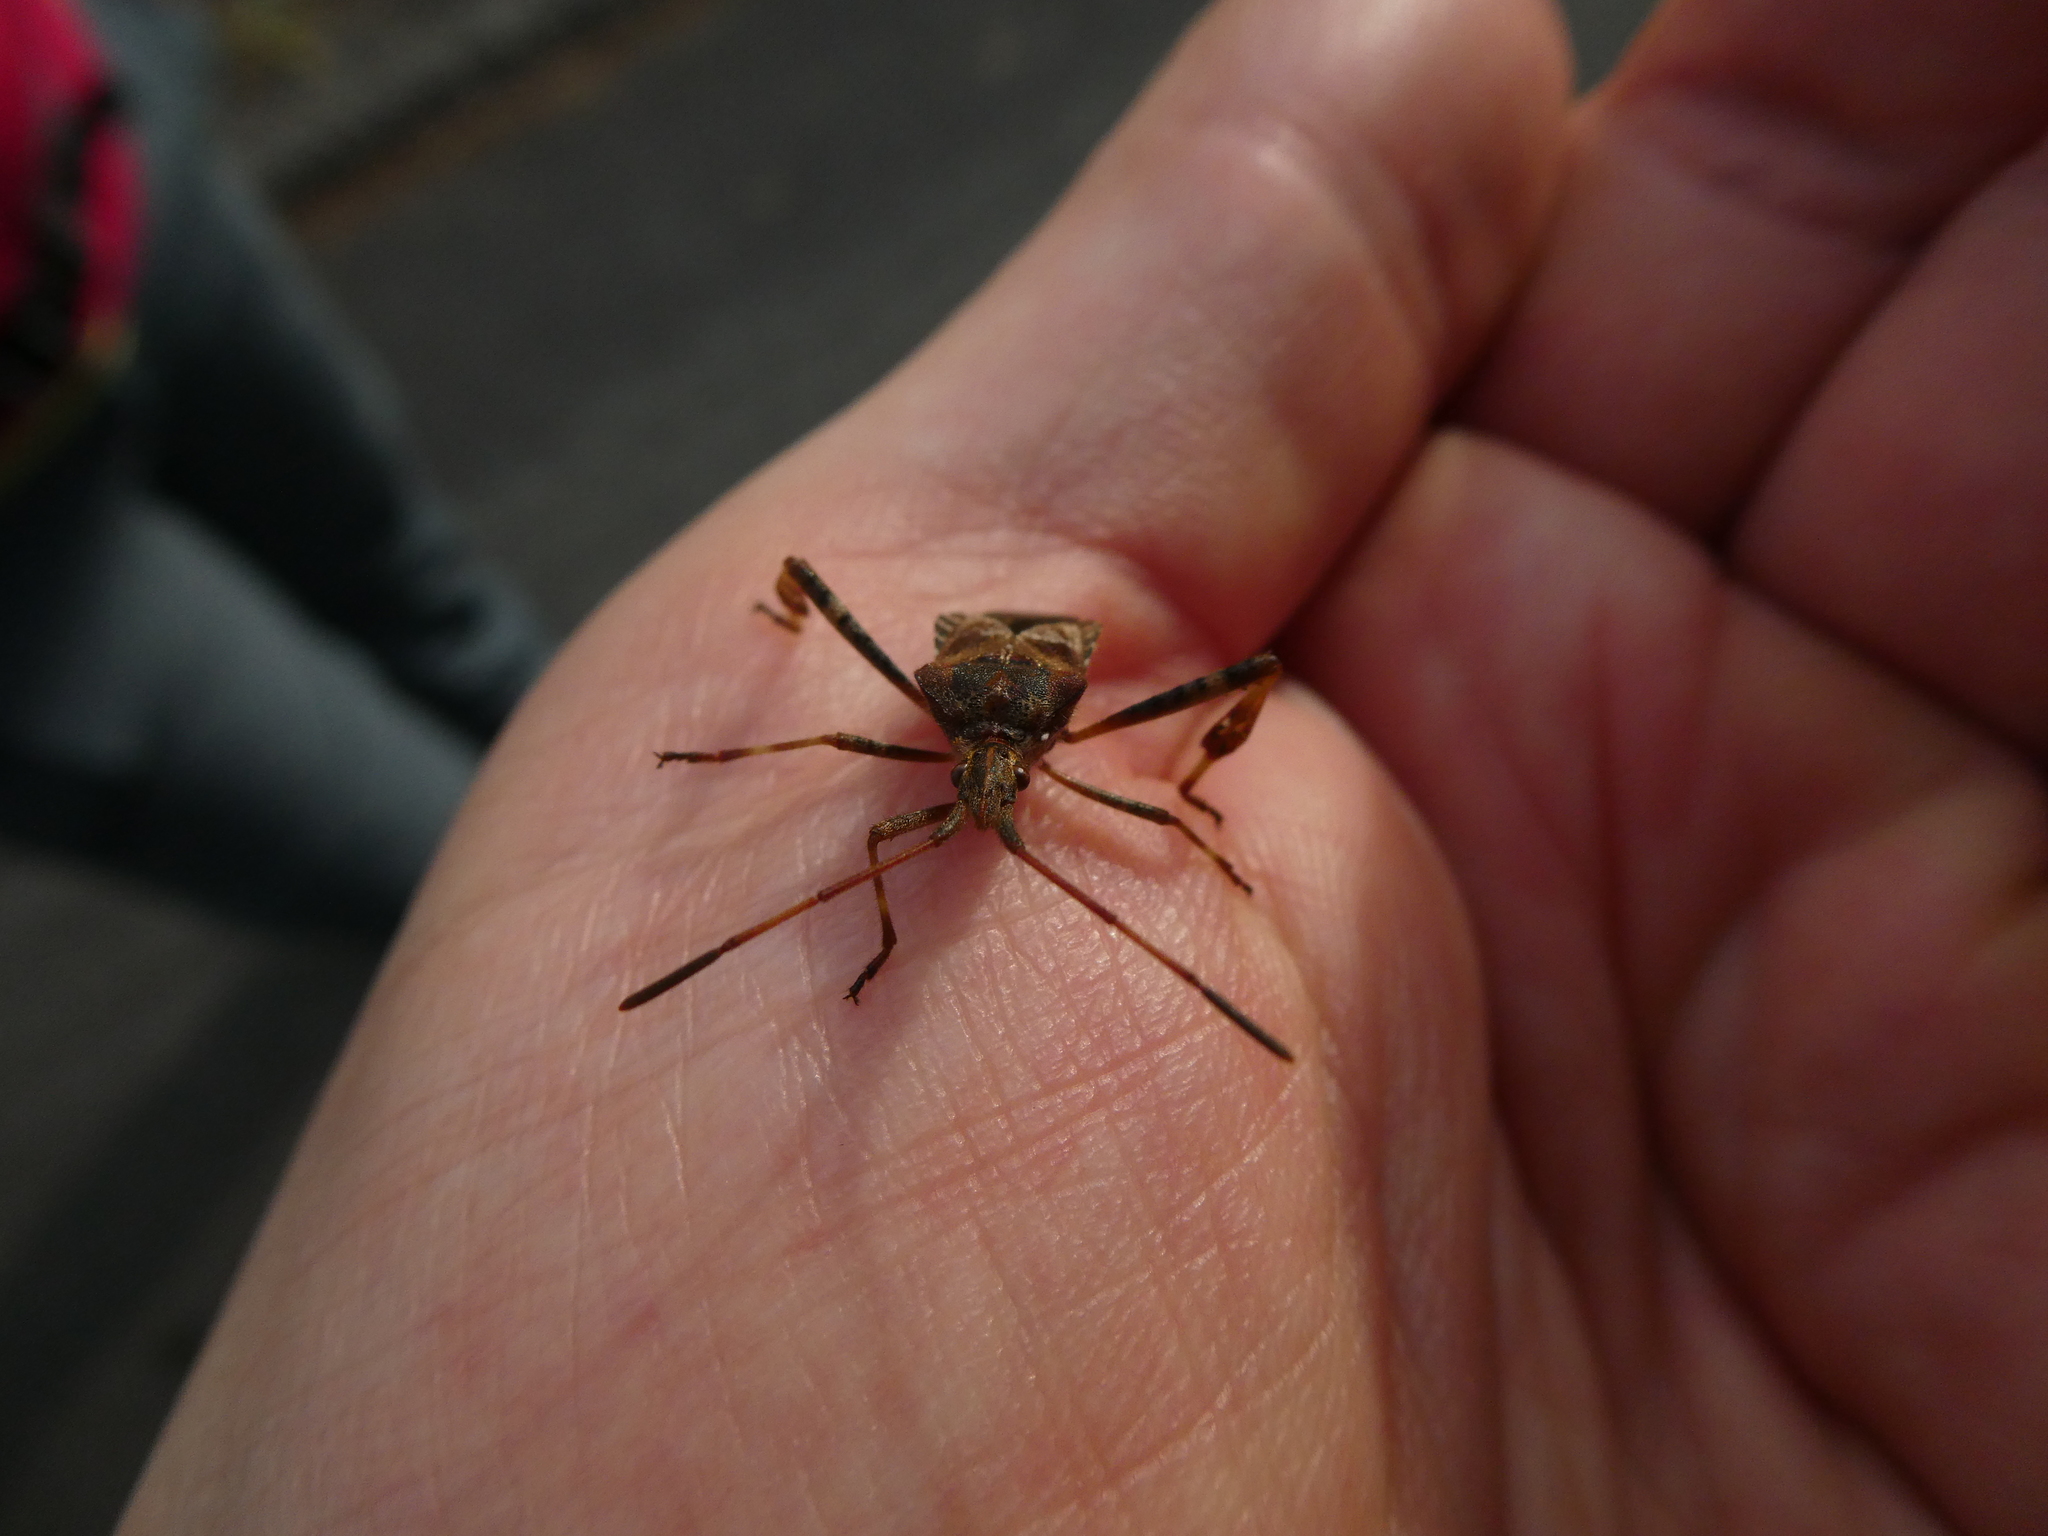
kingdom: Animalia
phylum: Arthropoda
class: Insecta
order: Hemiptera
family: Coreidae
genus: Leptoglossus
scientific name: Leptoglossus occidentalis
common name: Western conifer-seed bug
